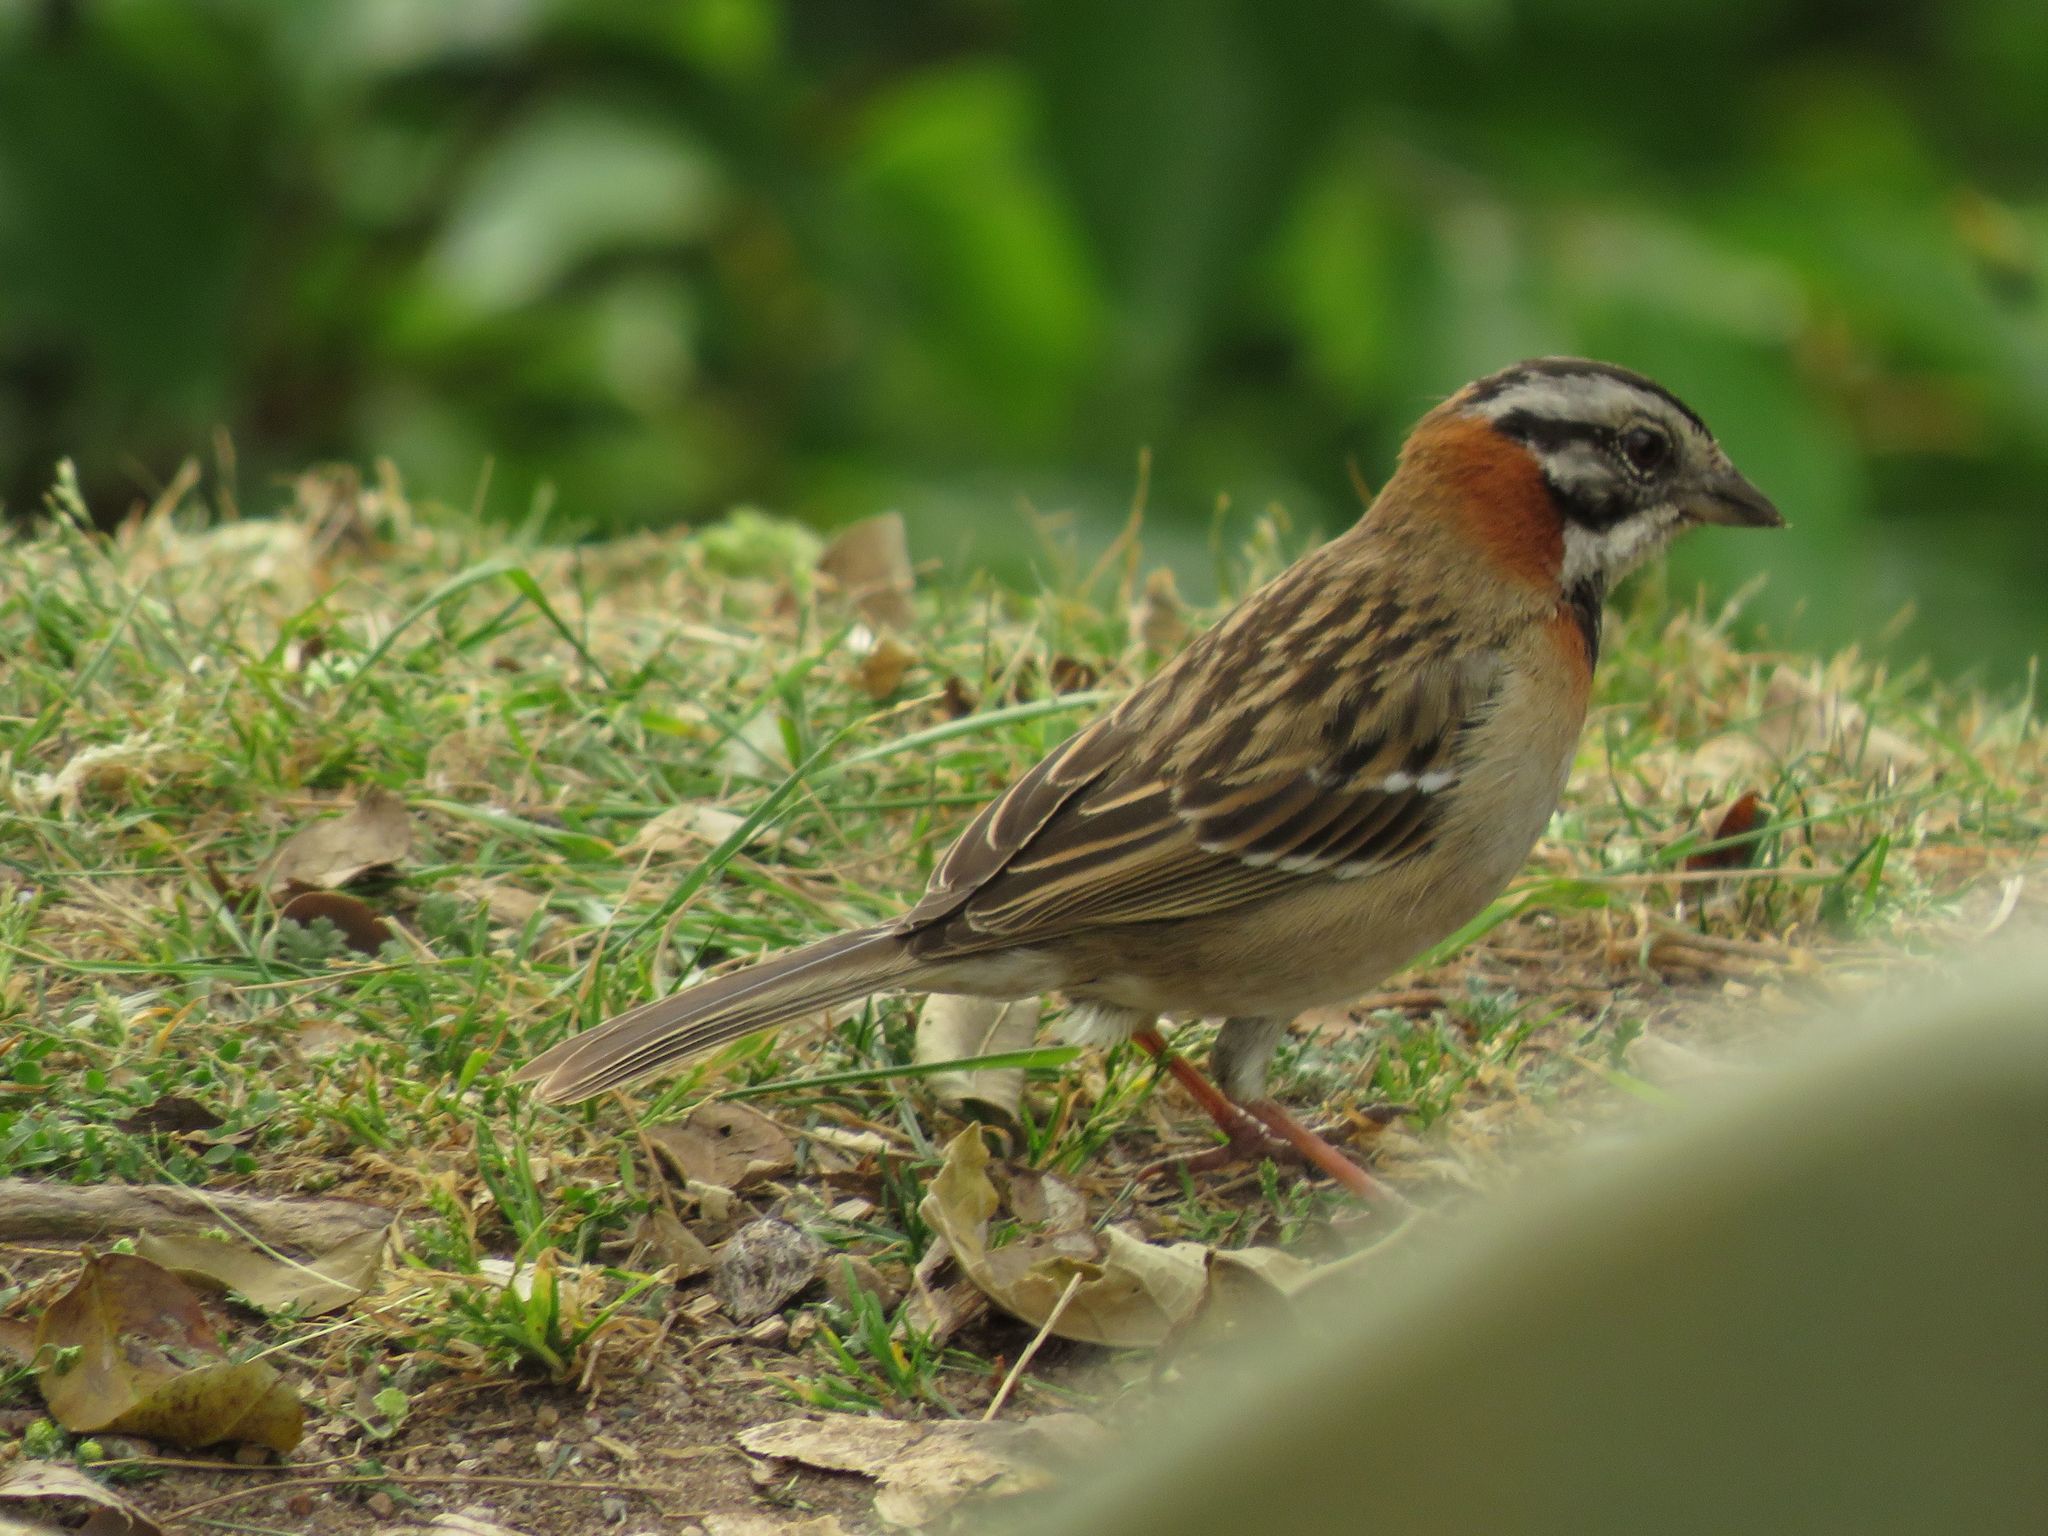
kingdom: Animalia
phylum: Chordata
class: Aves
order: Passeriformes
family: Passerellidae
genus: Zonotrichia
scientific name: Zonotrichia capensis
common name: Rufous-collared sparrow
